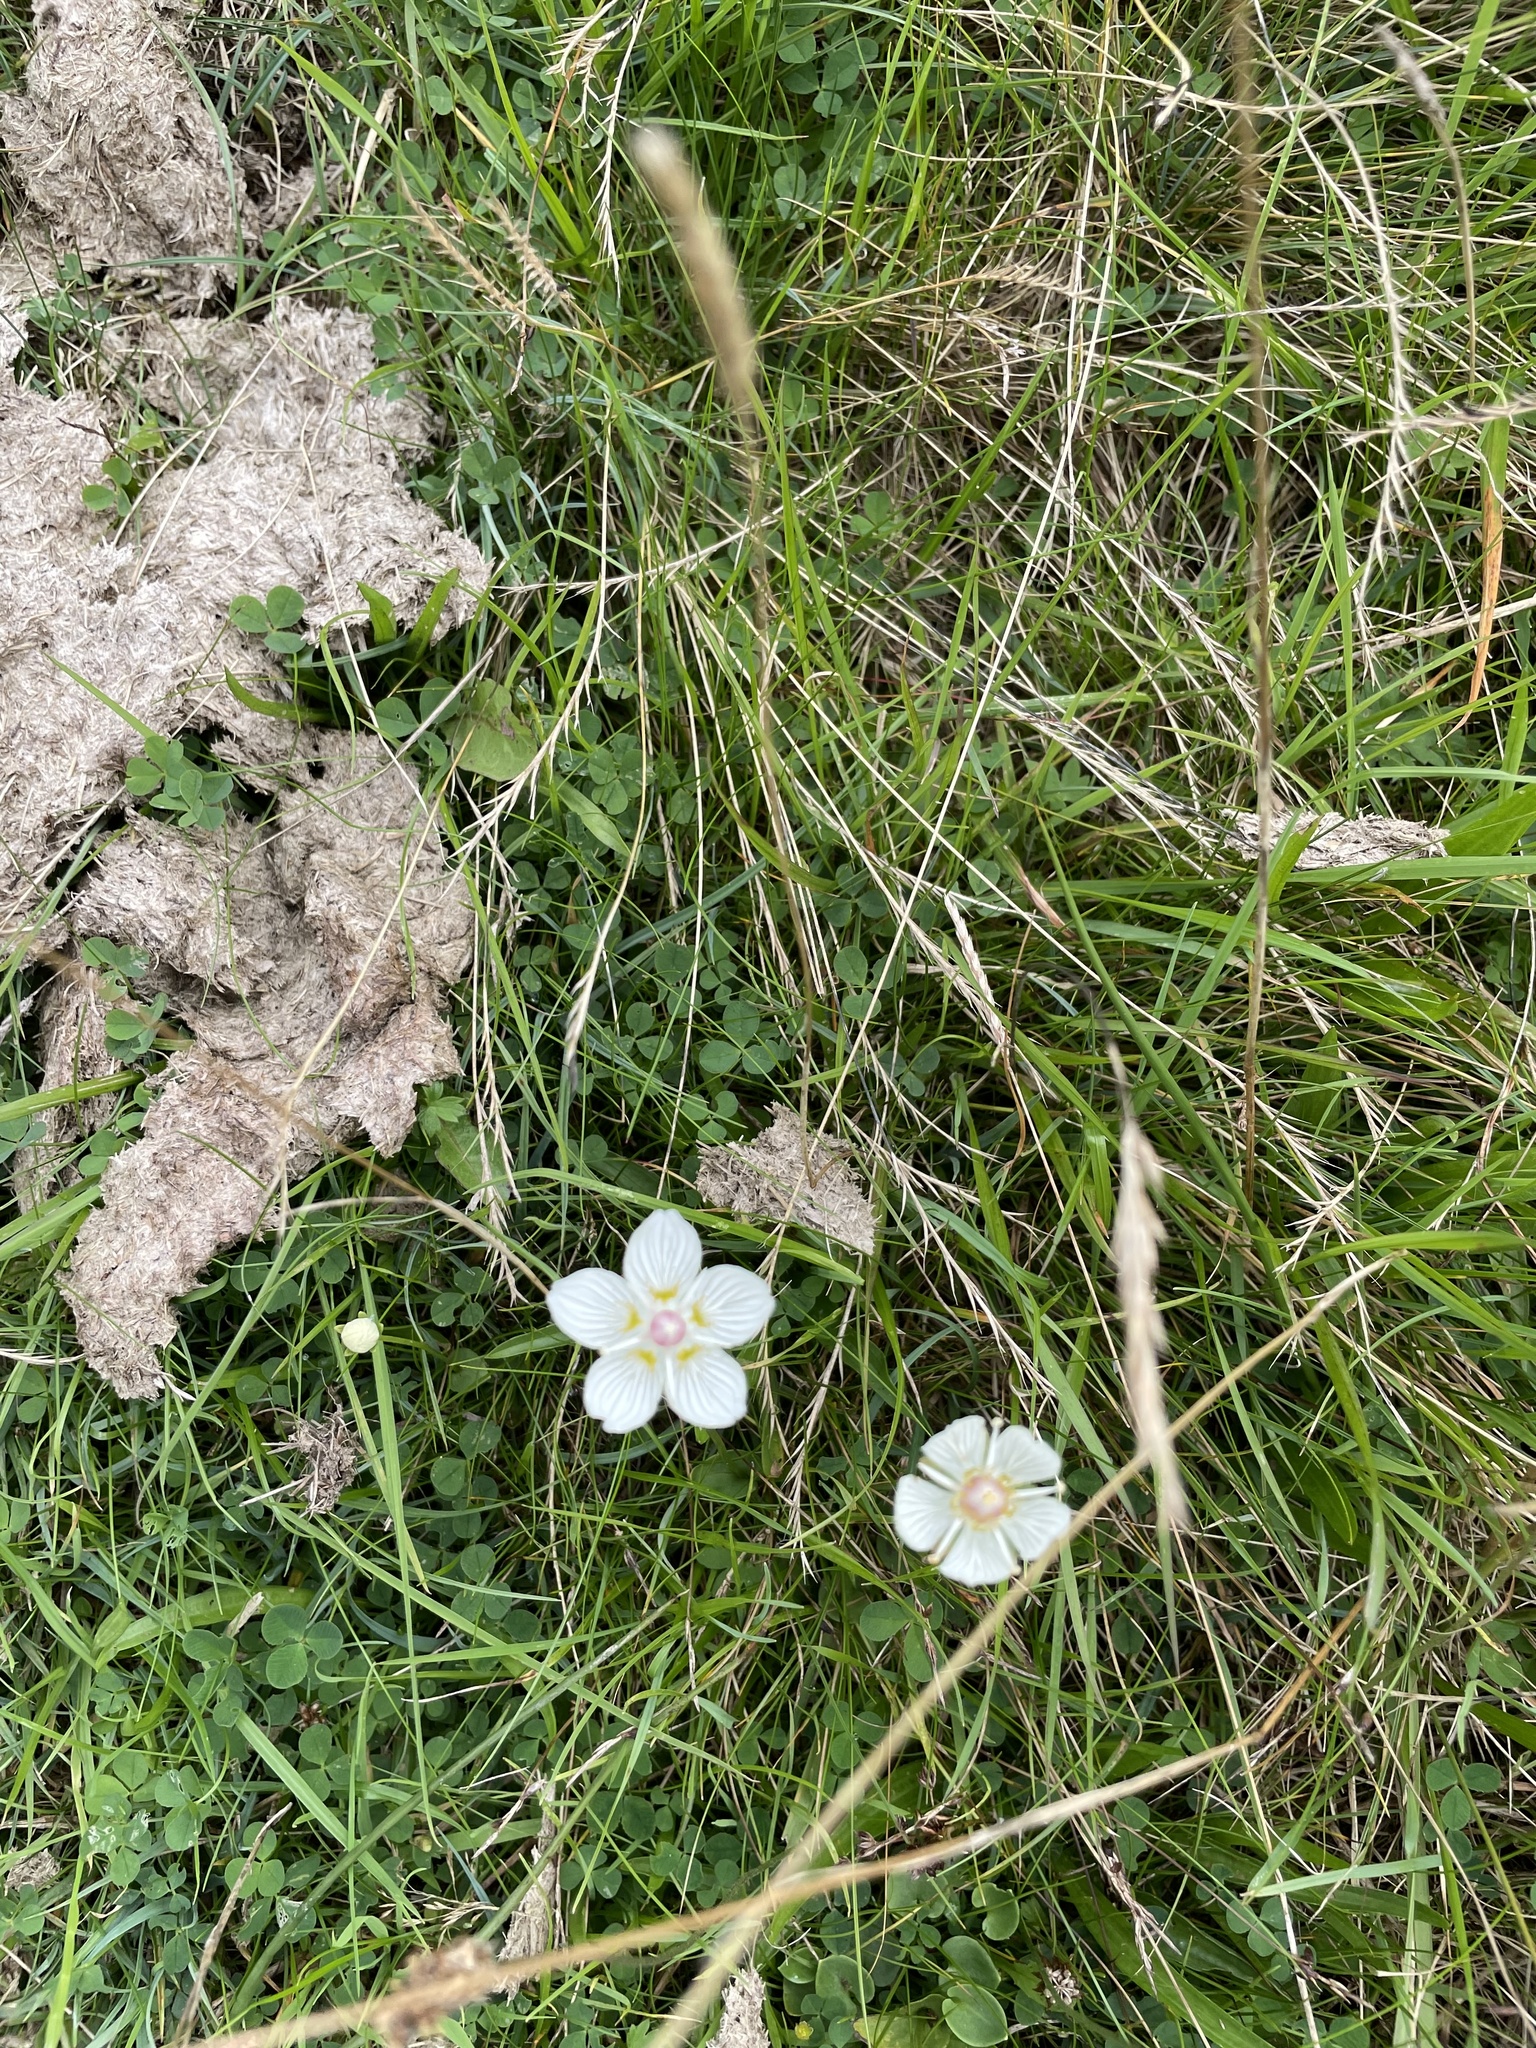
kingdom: Plantae
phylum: Tracheophyta
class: Magnoliopsida
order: Celastrales
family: Parnassiaceae
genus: Parnassia
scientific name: Parnassia palustris
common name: Grass-of-parnassus
